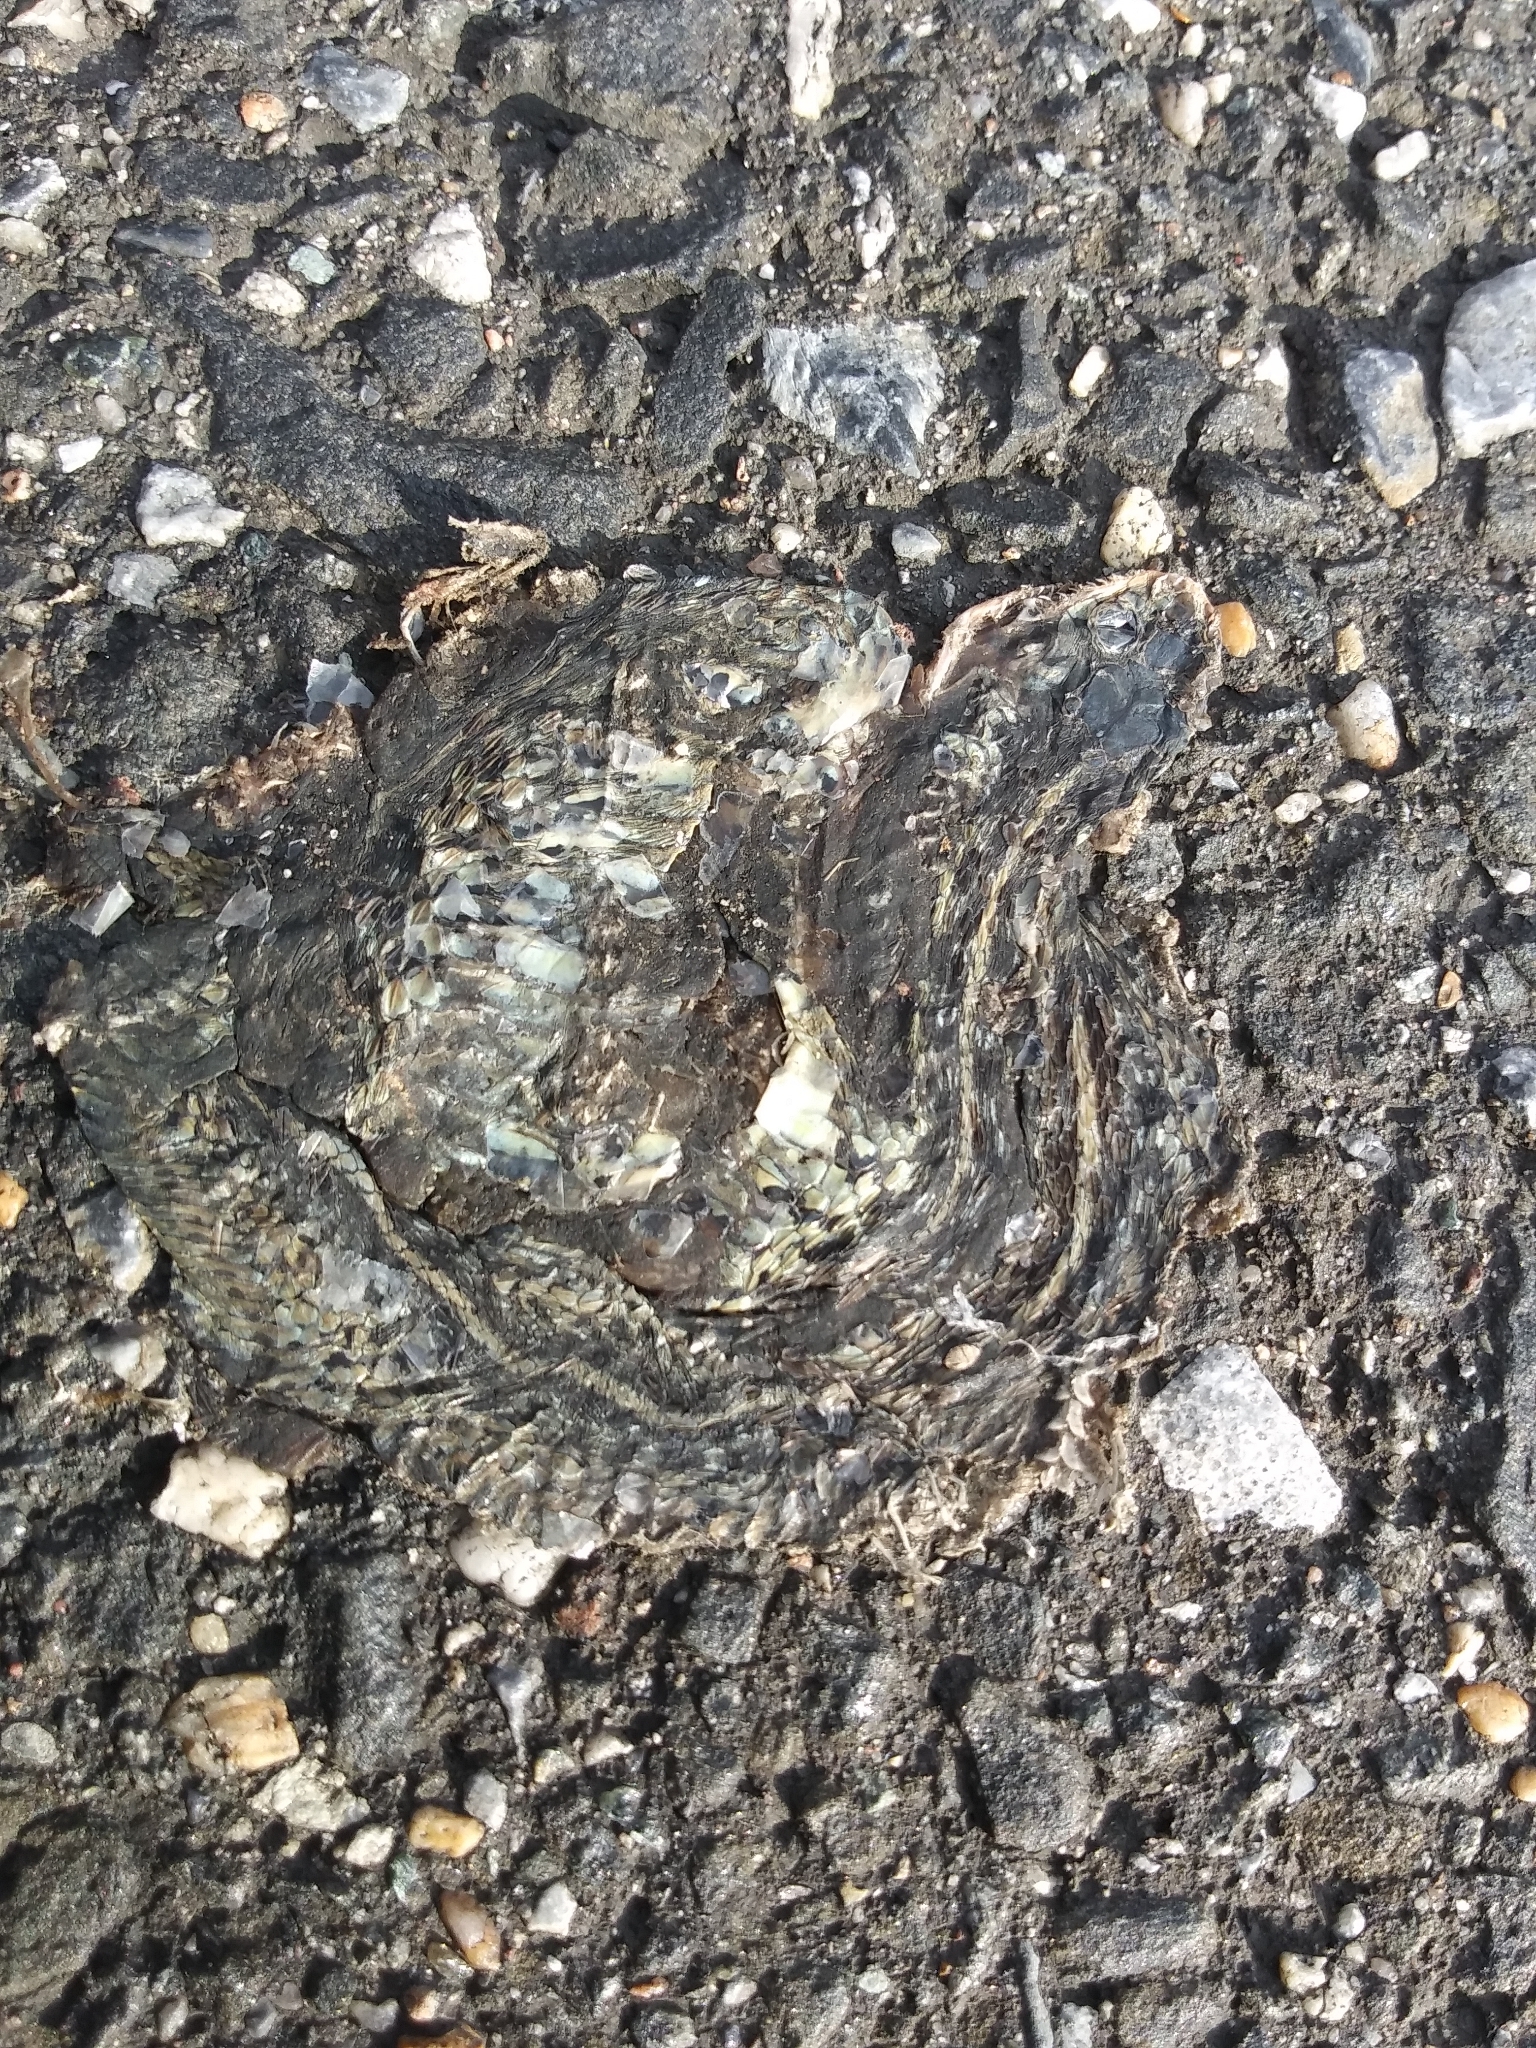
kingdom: Animalia
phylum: Chordata
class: Squamata
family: Colubridae
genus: Thamnophis
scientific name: Thamnophis sirtalis
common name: Common garter snake
